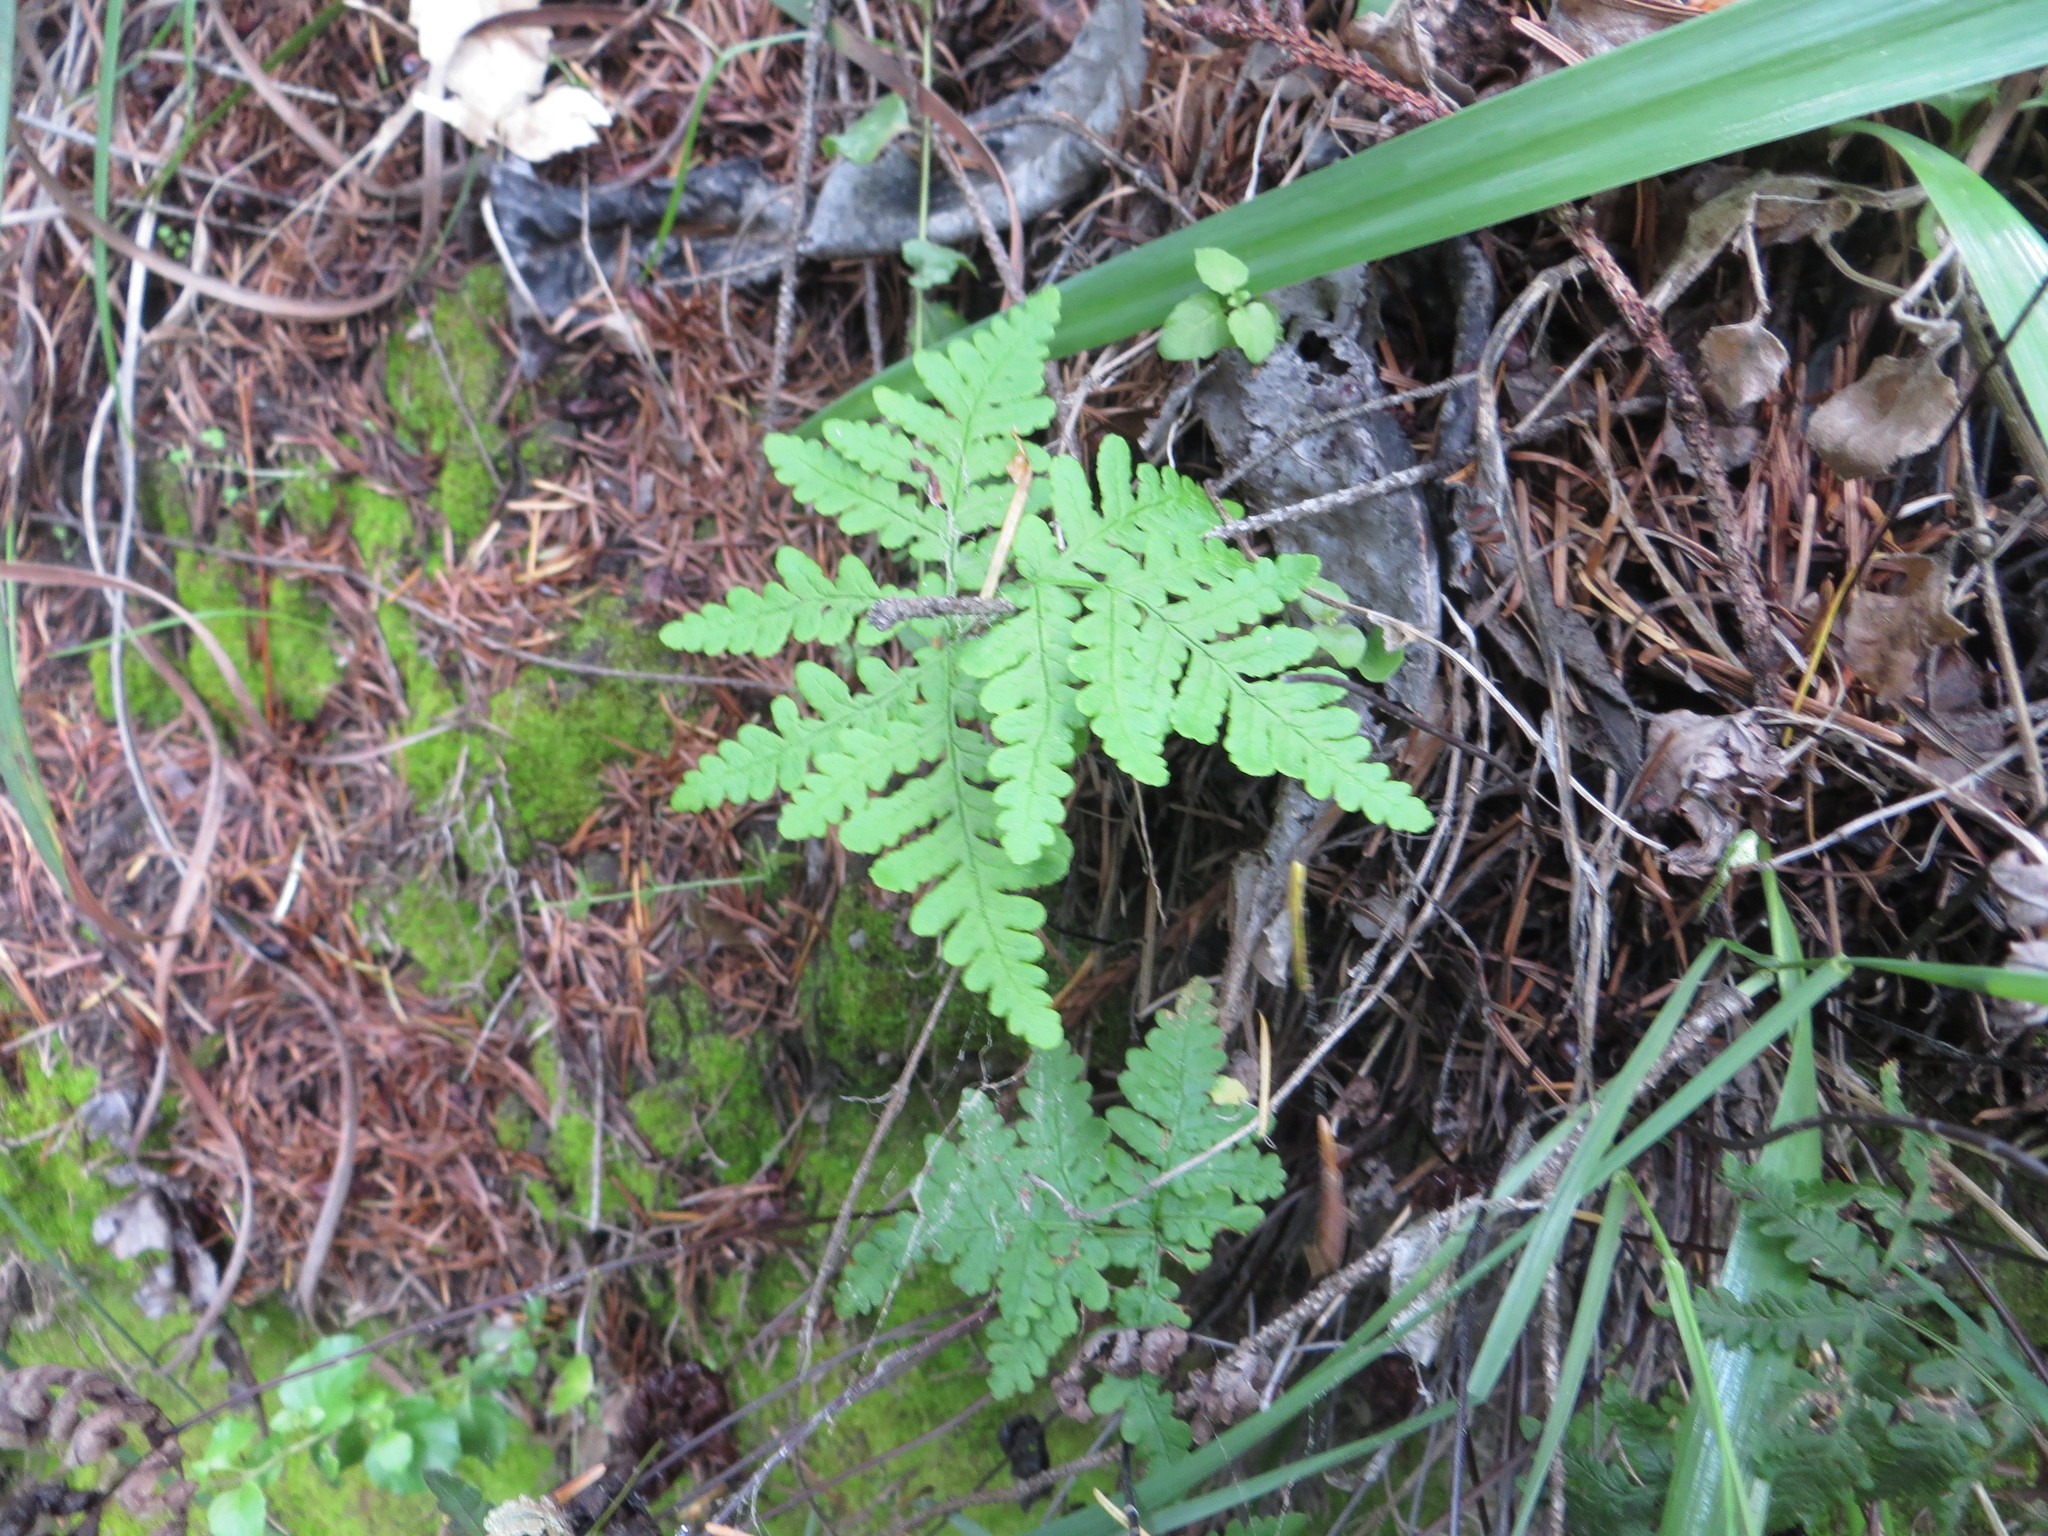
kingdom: Plantae
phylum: Tracheophyta
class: Polypodiopsida
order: Polypodiales
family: Pteridaceae
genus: Pentagramma
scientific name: Pentagramma triangularis
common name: Gold fern
